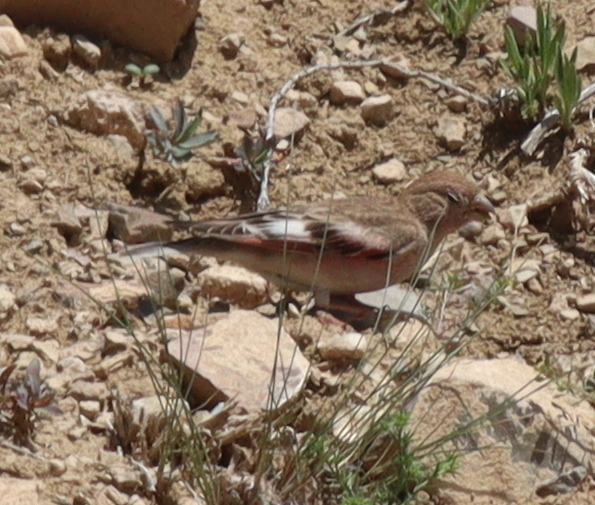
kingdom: Animalia
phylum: Chordata
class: Aves
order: Passeriformes
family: Fringillidae
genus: Bucanetes
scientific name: Bucanetes mongolicus
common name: Mongolian finch
